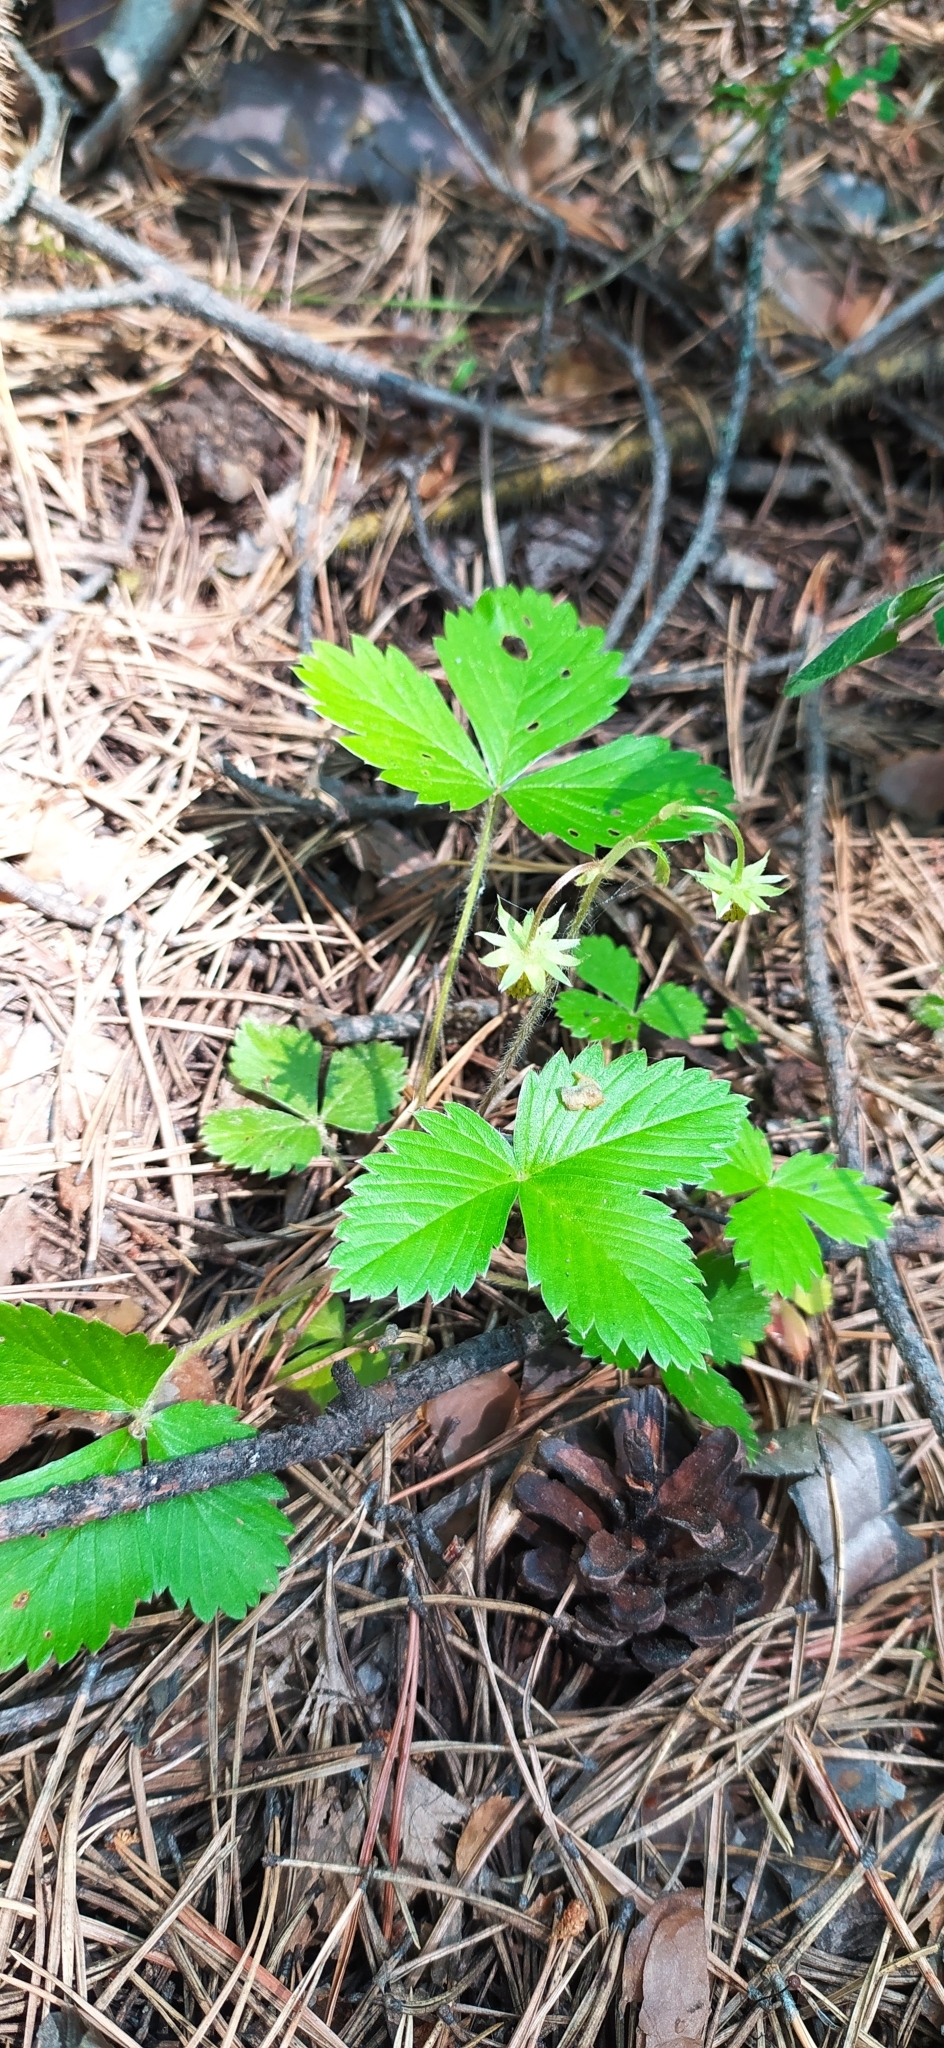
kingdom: Plantae
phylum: Tracheophyta
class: Magnoliopsida
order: Rosales
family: Rosaceae
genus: Fragaria
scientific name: Fragaria vesca
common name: Wild strawberry
